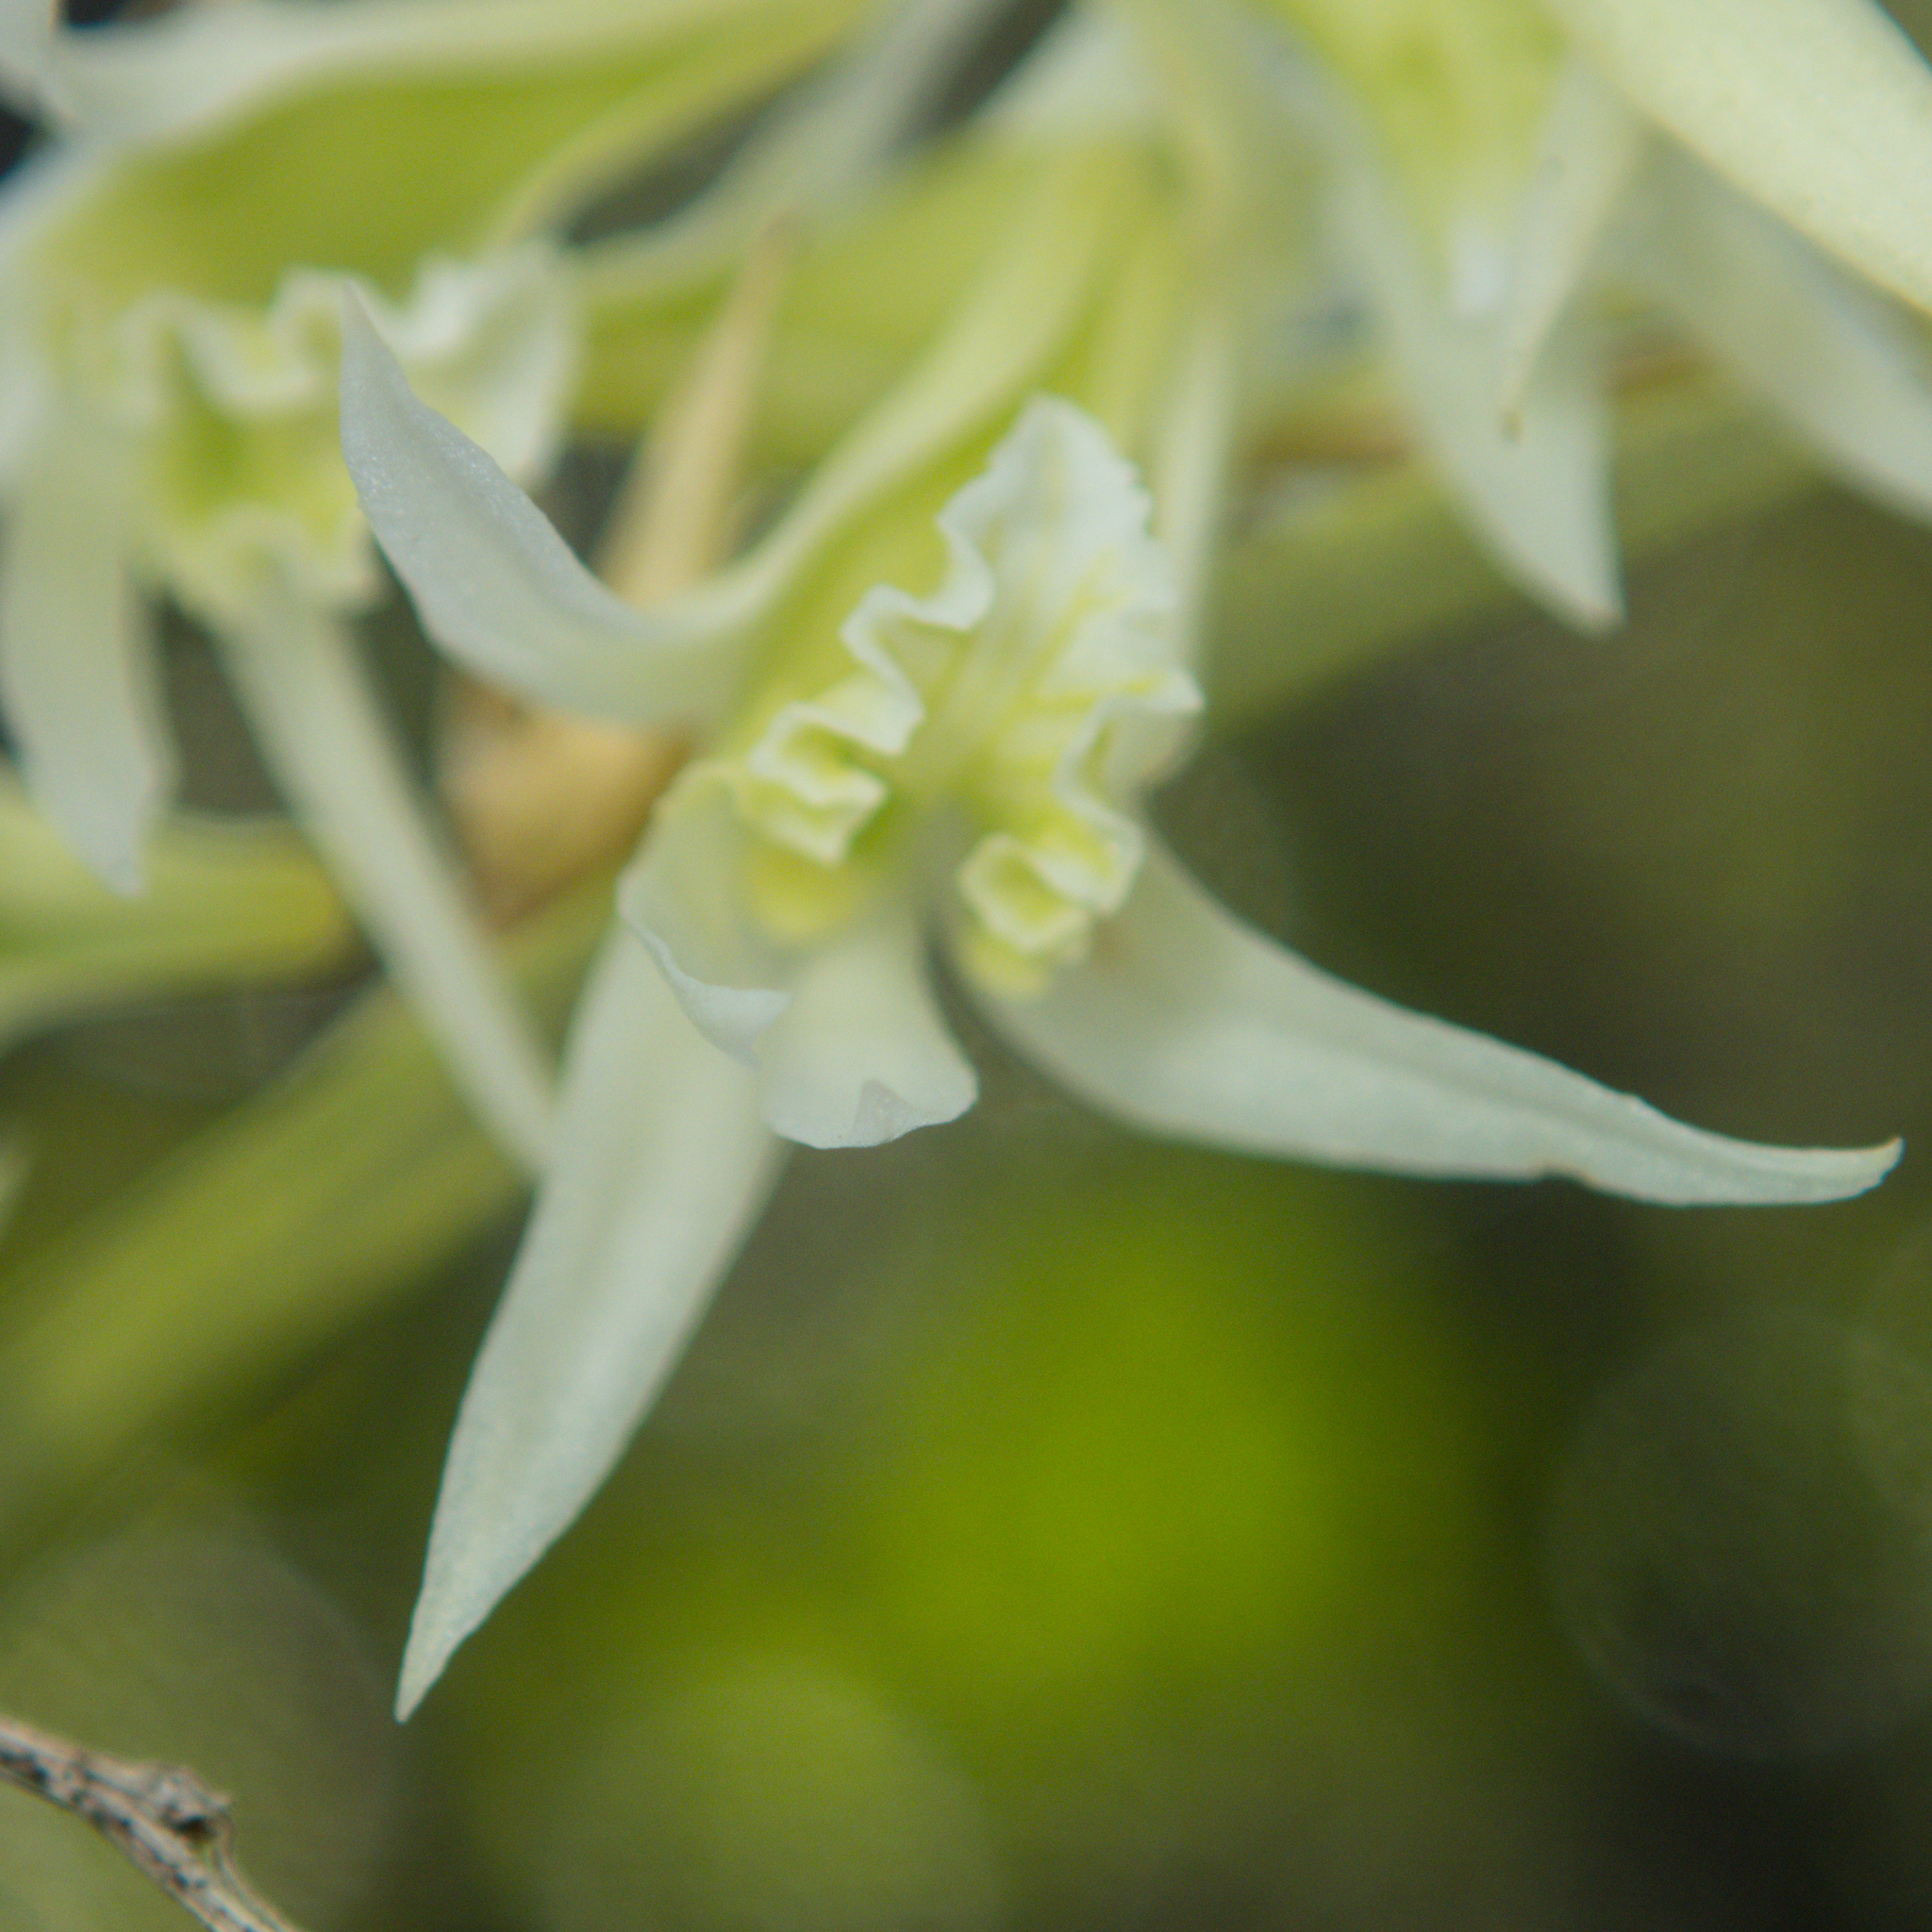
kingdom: Plantae
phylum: Tracheophyta
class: Liliopsida
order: Asparagales
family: Orchidaceae
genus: Dendrobium
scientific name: Dendrobium kratense
